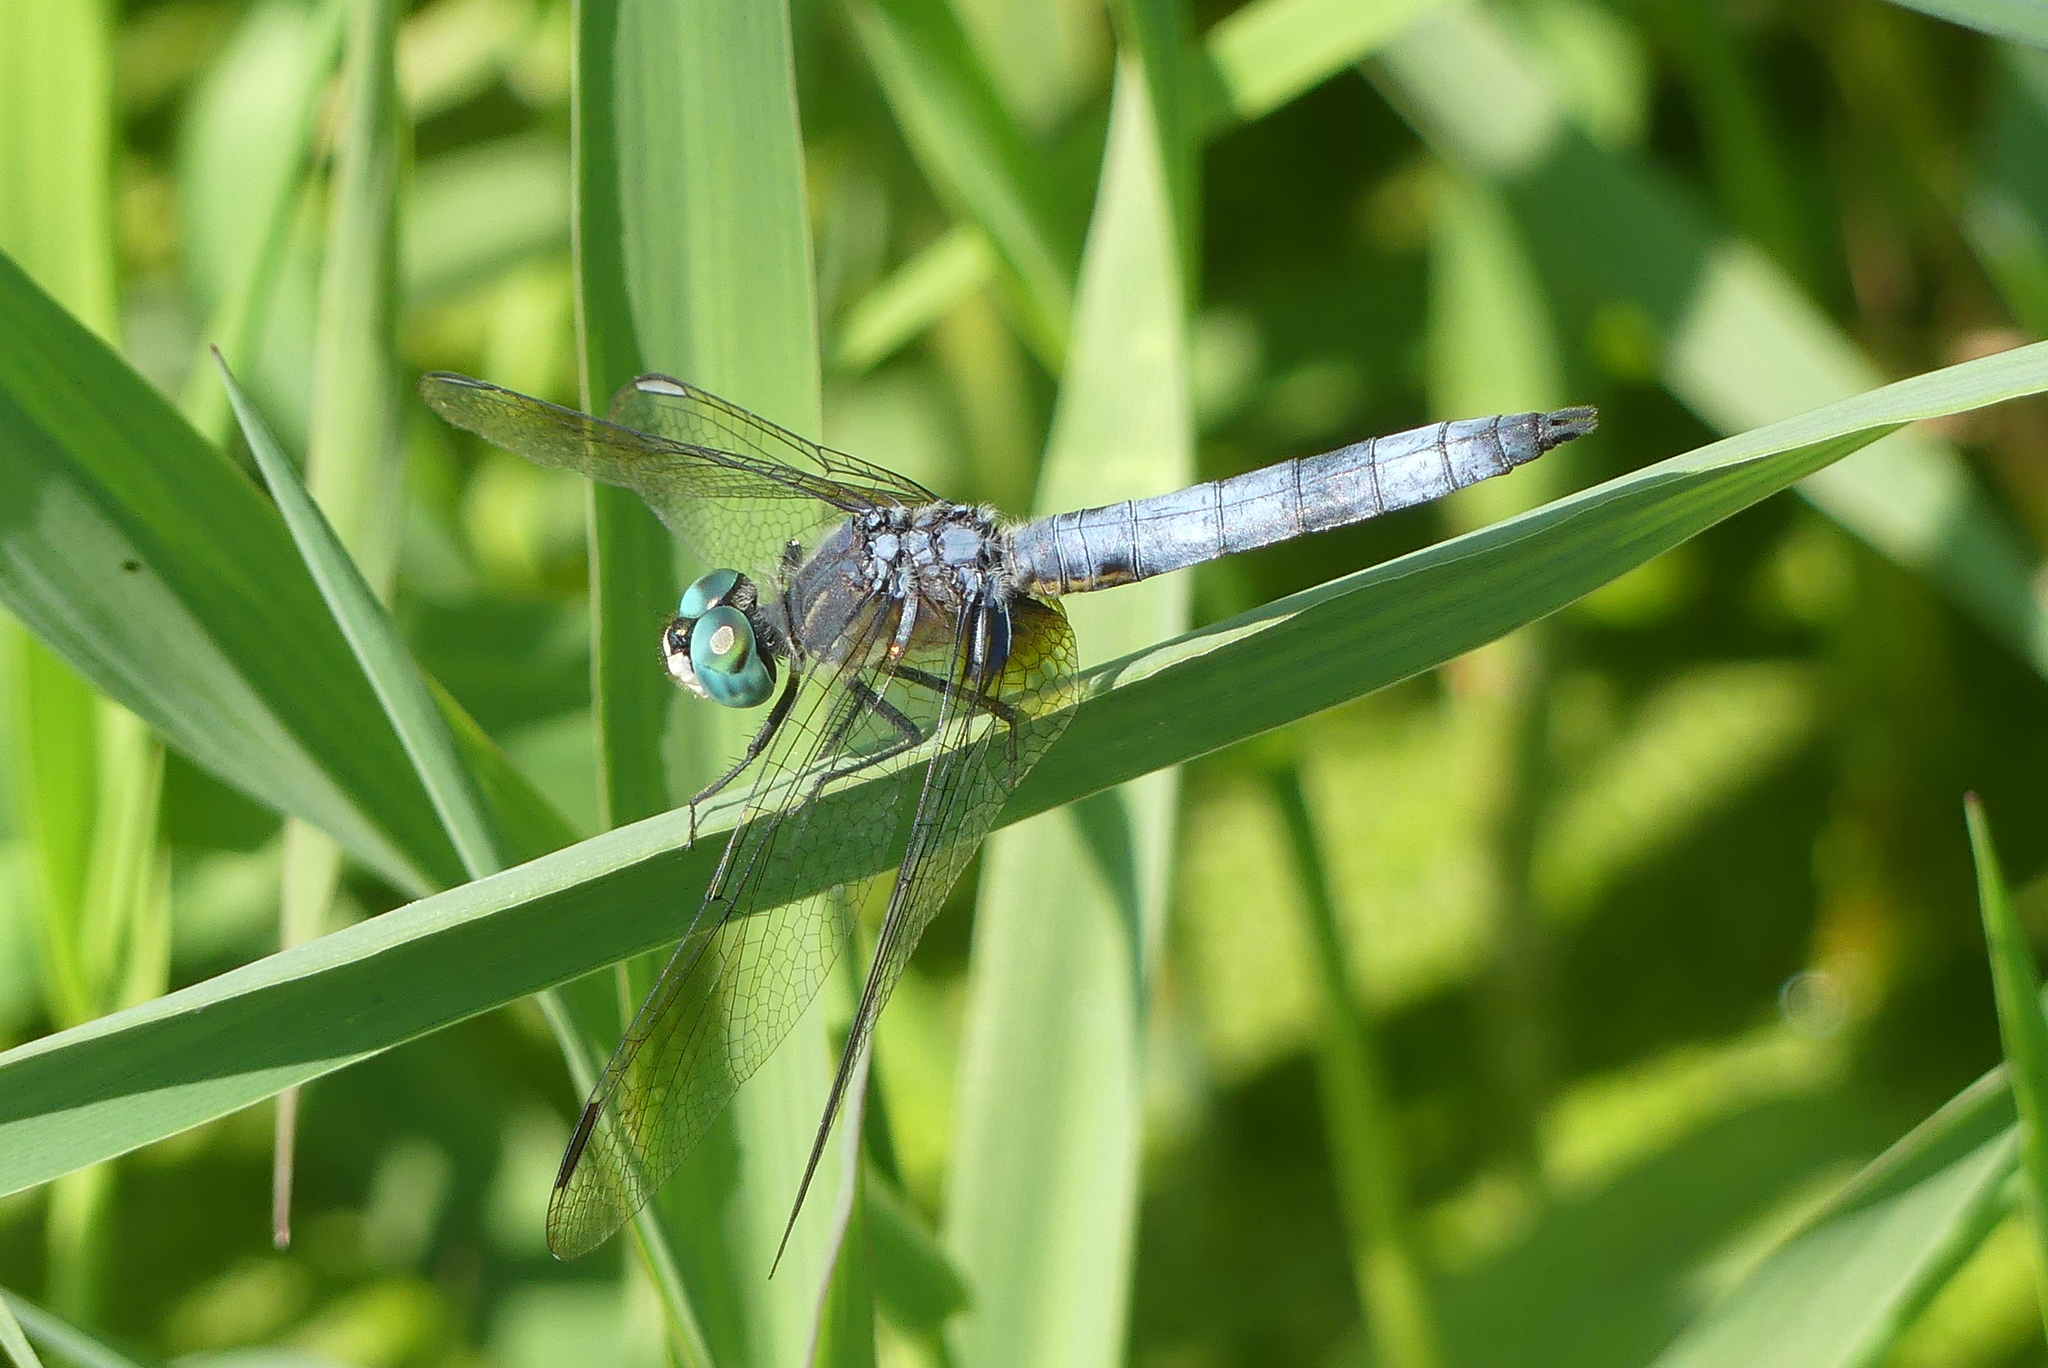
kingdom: Animalia
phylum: Arthropoda
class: Insecta
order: Odonata
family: Libellulidae
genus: Pachydiplax
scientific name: Pachydiplax longipennis
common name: Blue dasher
